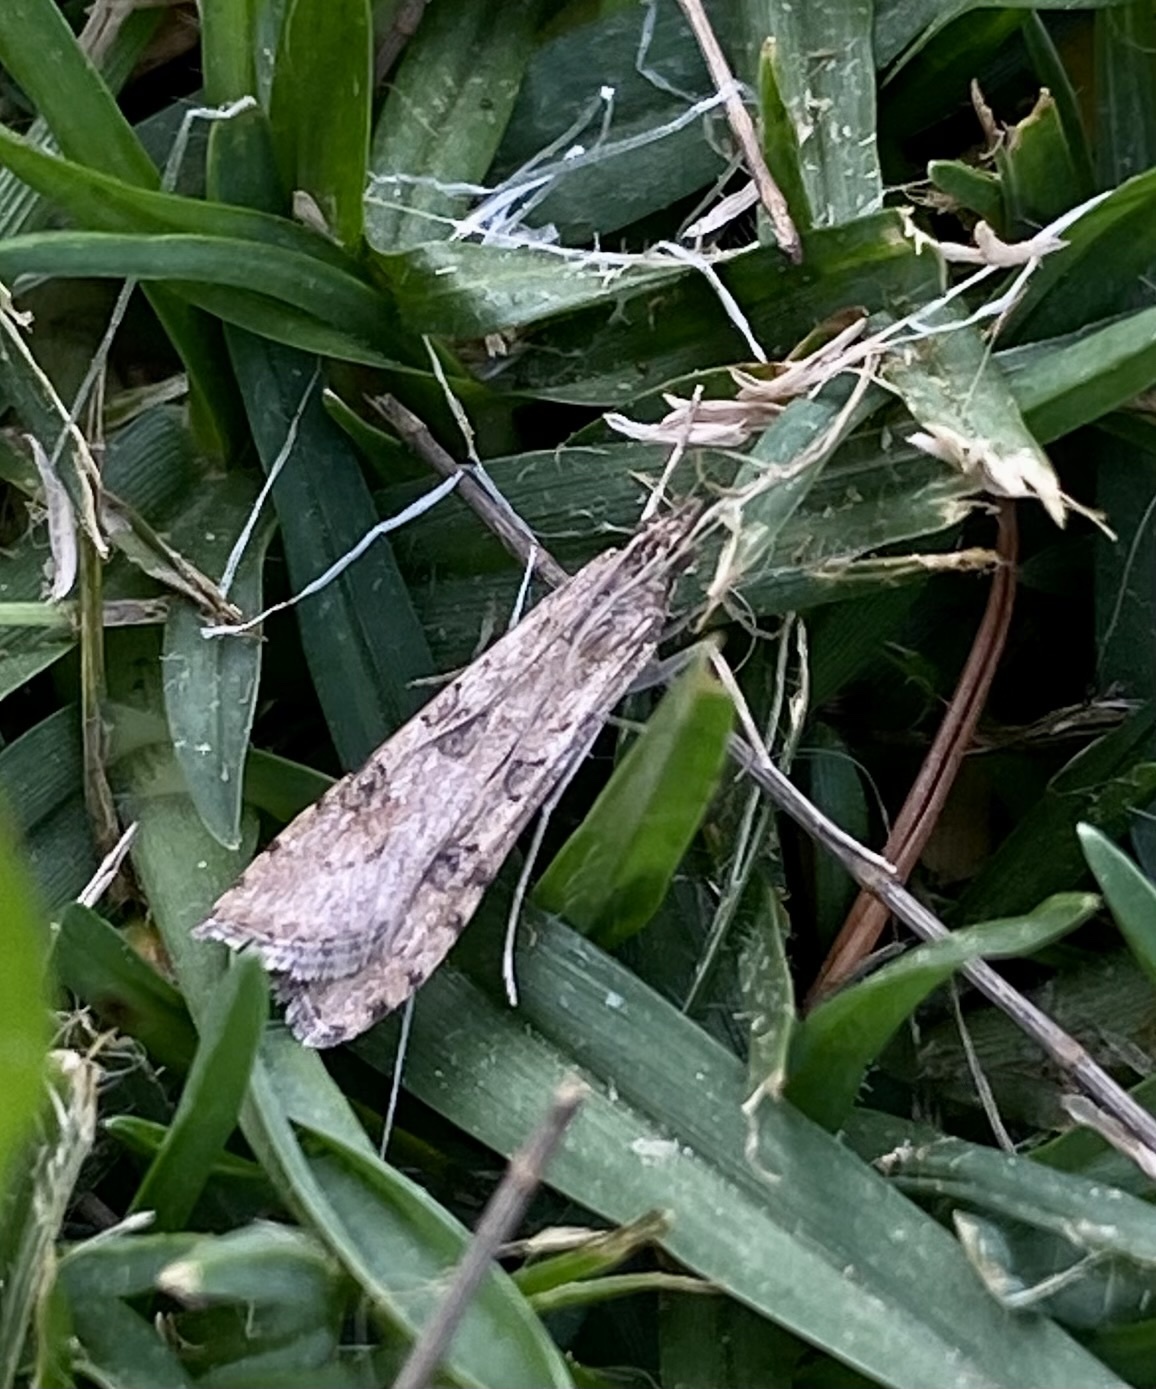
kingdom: Animalia
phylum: Arthropoda
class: Insecta
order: Lepidoptera
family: Crambidae
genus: Nomophila
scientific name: Nomophila
